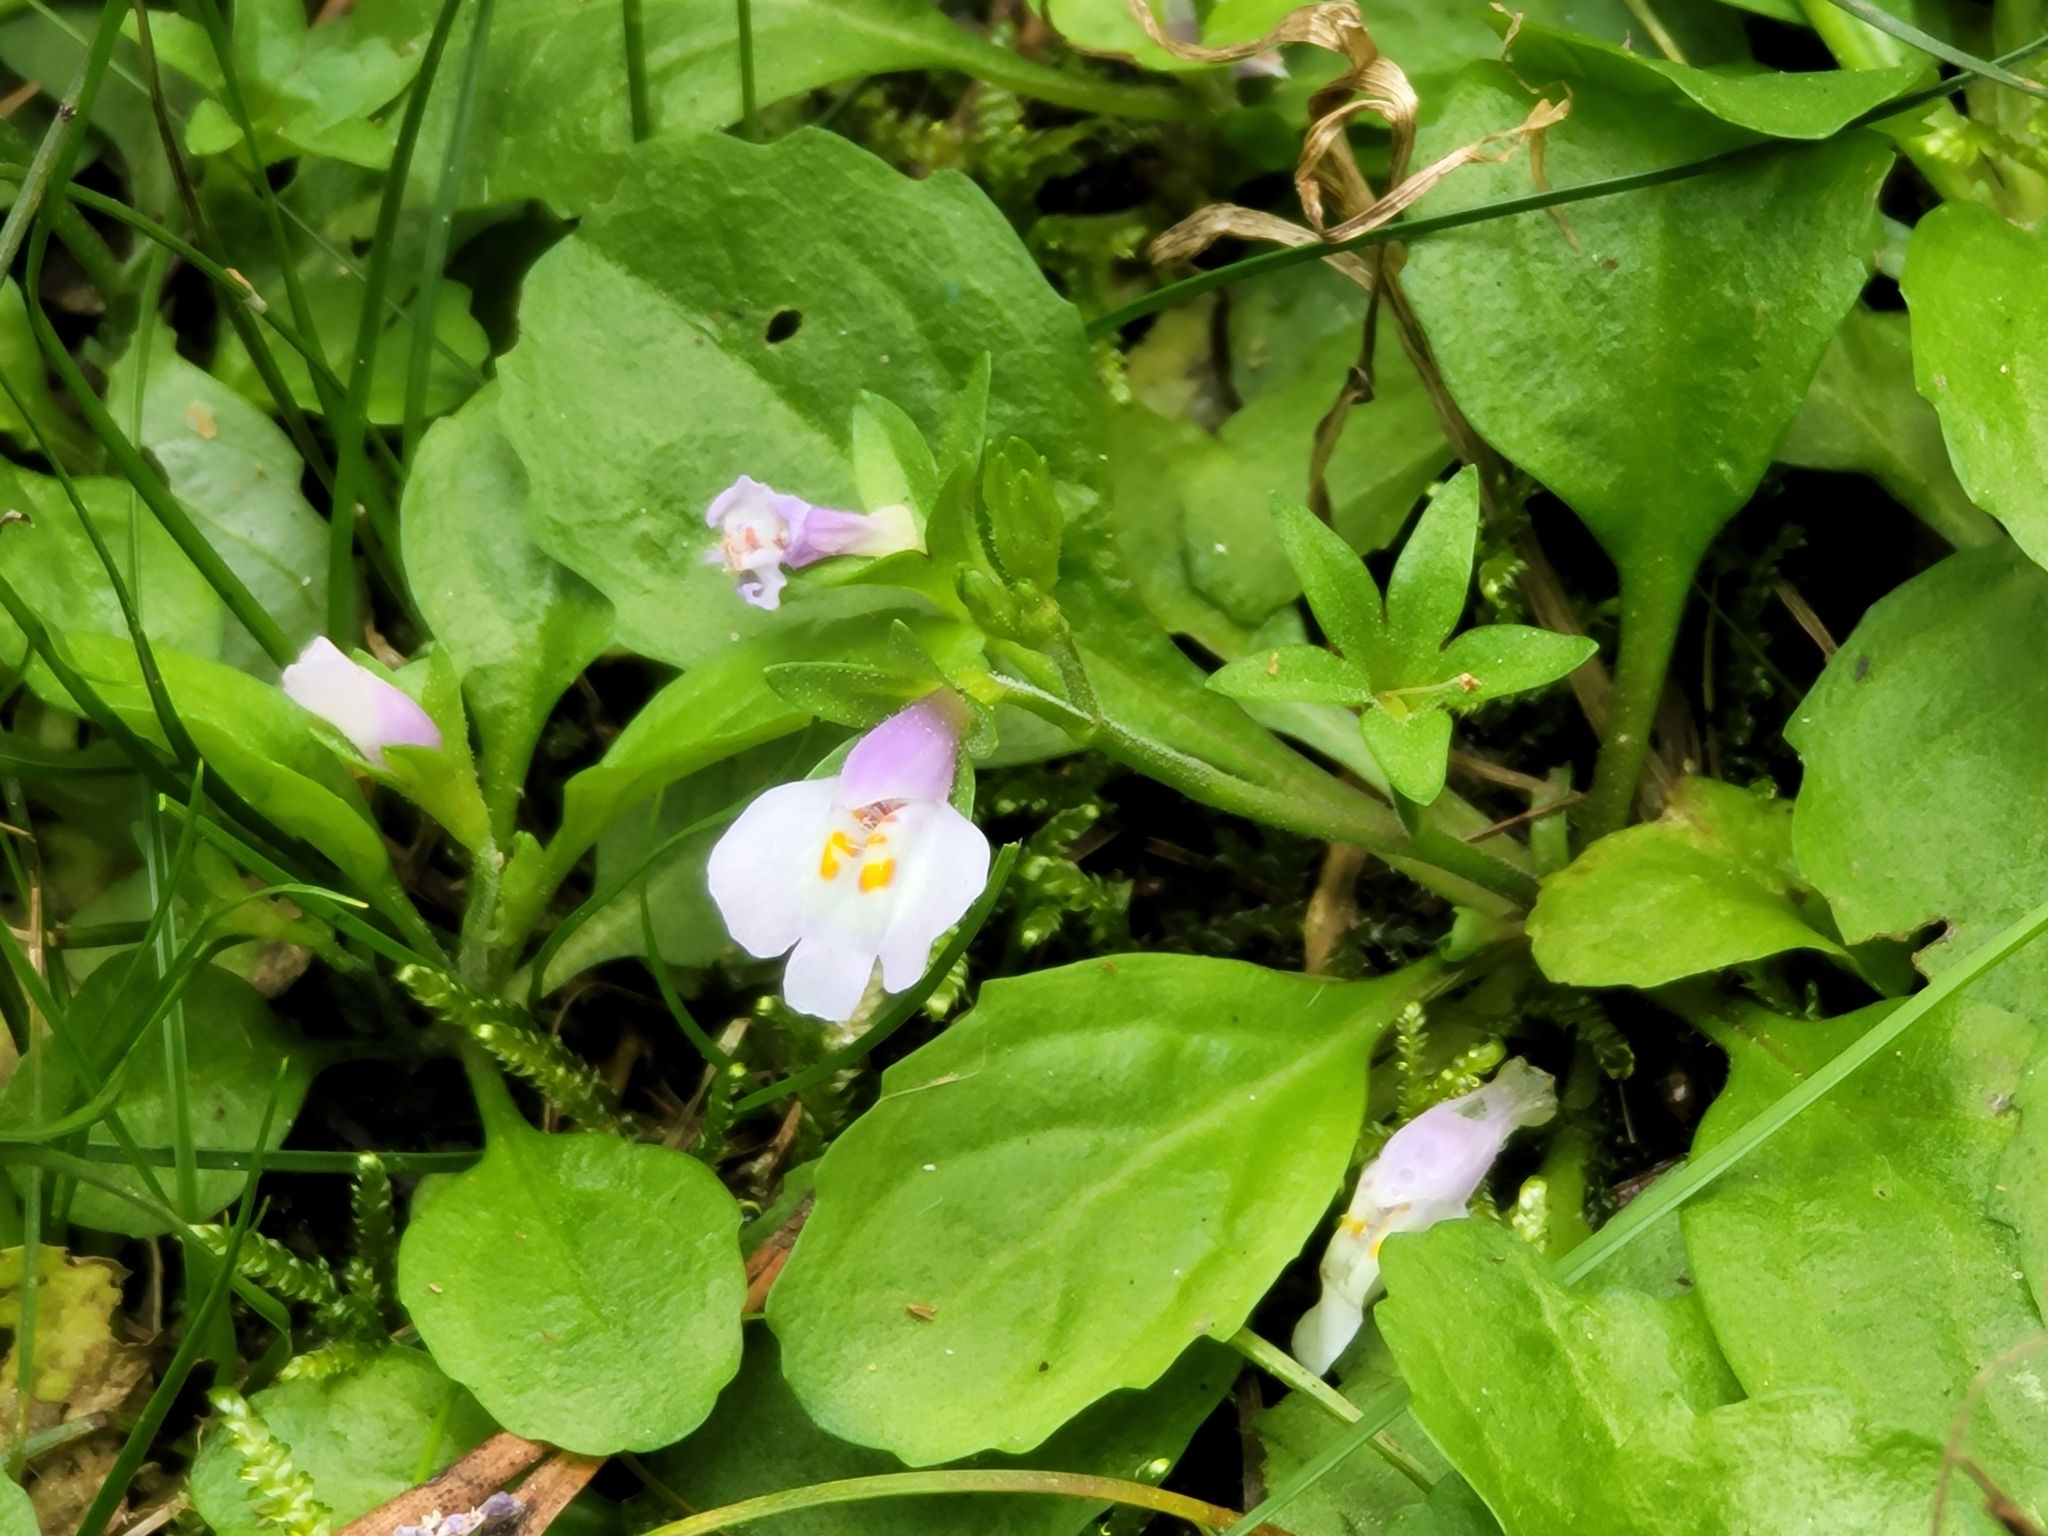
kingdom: Plantae
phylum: Tracheophyta
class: Magnoliopsida
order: Lamiales
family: Mazaceae
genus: Mazus
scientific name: Mazus pumilus
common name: Japanese mazus
